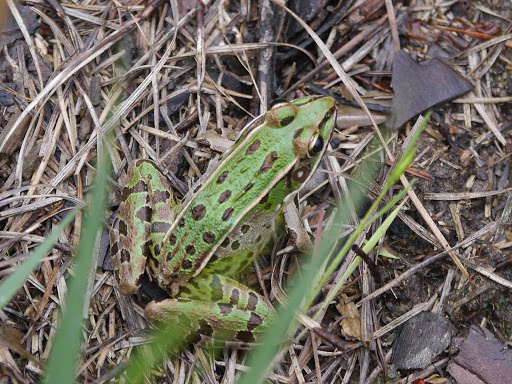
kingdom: Animalia
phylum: Chordata
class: Amphibia
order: Anura
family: Ranidae
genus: Lithobates
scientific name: Lithobates sphenocephalus
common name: Southern leopard frog
